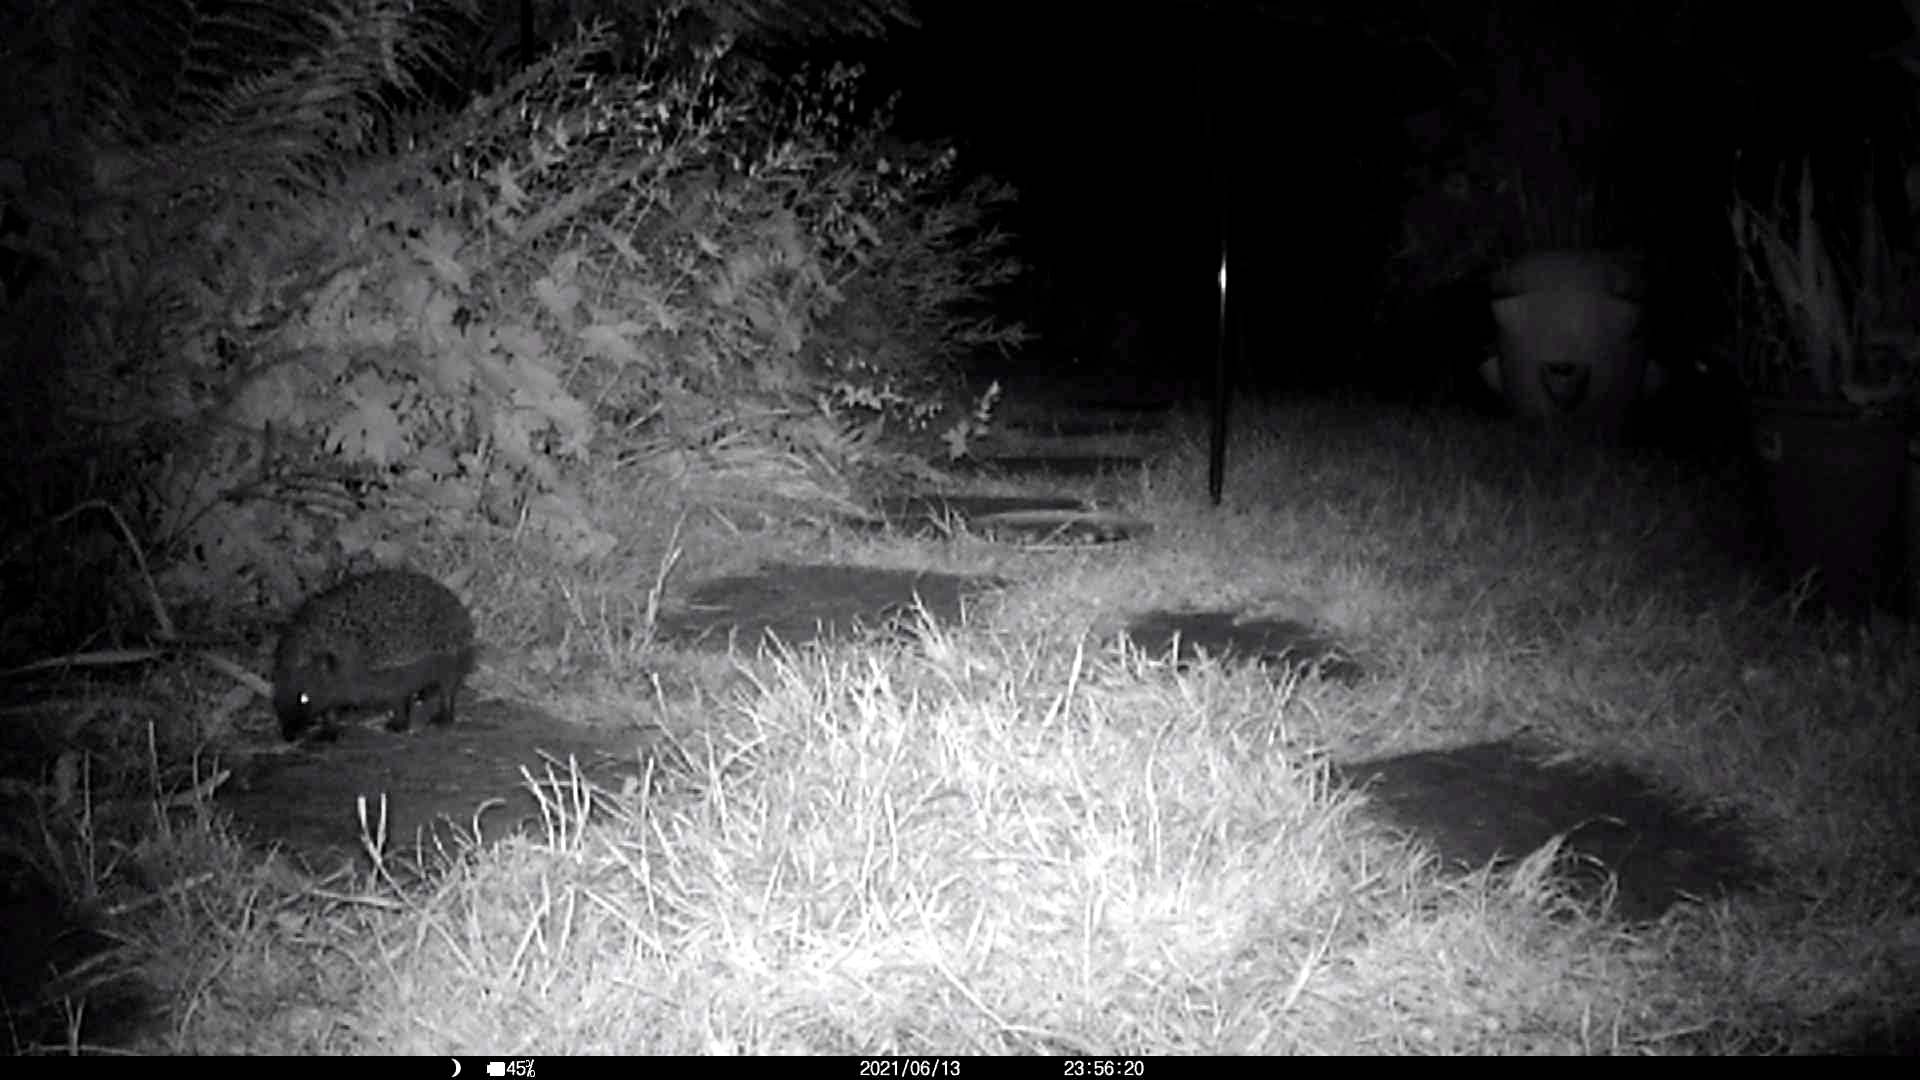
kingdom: Animalia
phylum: Chordata
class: Mammalia
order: Erinaceomorpha
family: Erinaceidae
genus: Erinaceus
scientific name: Erinaceus europaeus
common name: West european hedgehog
